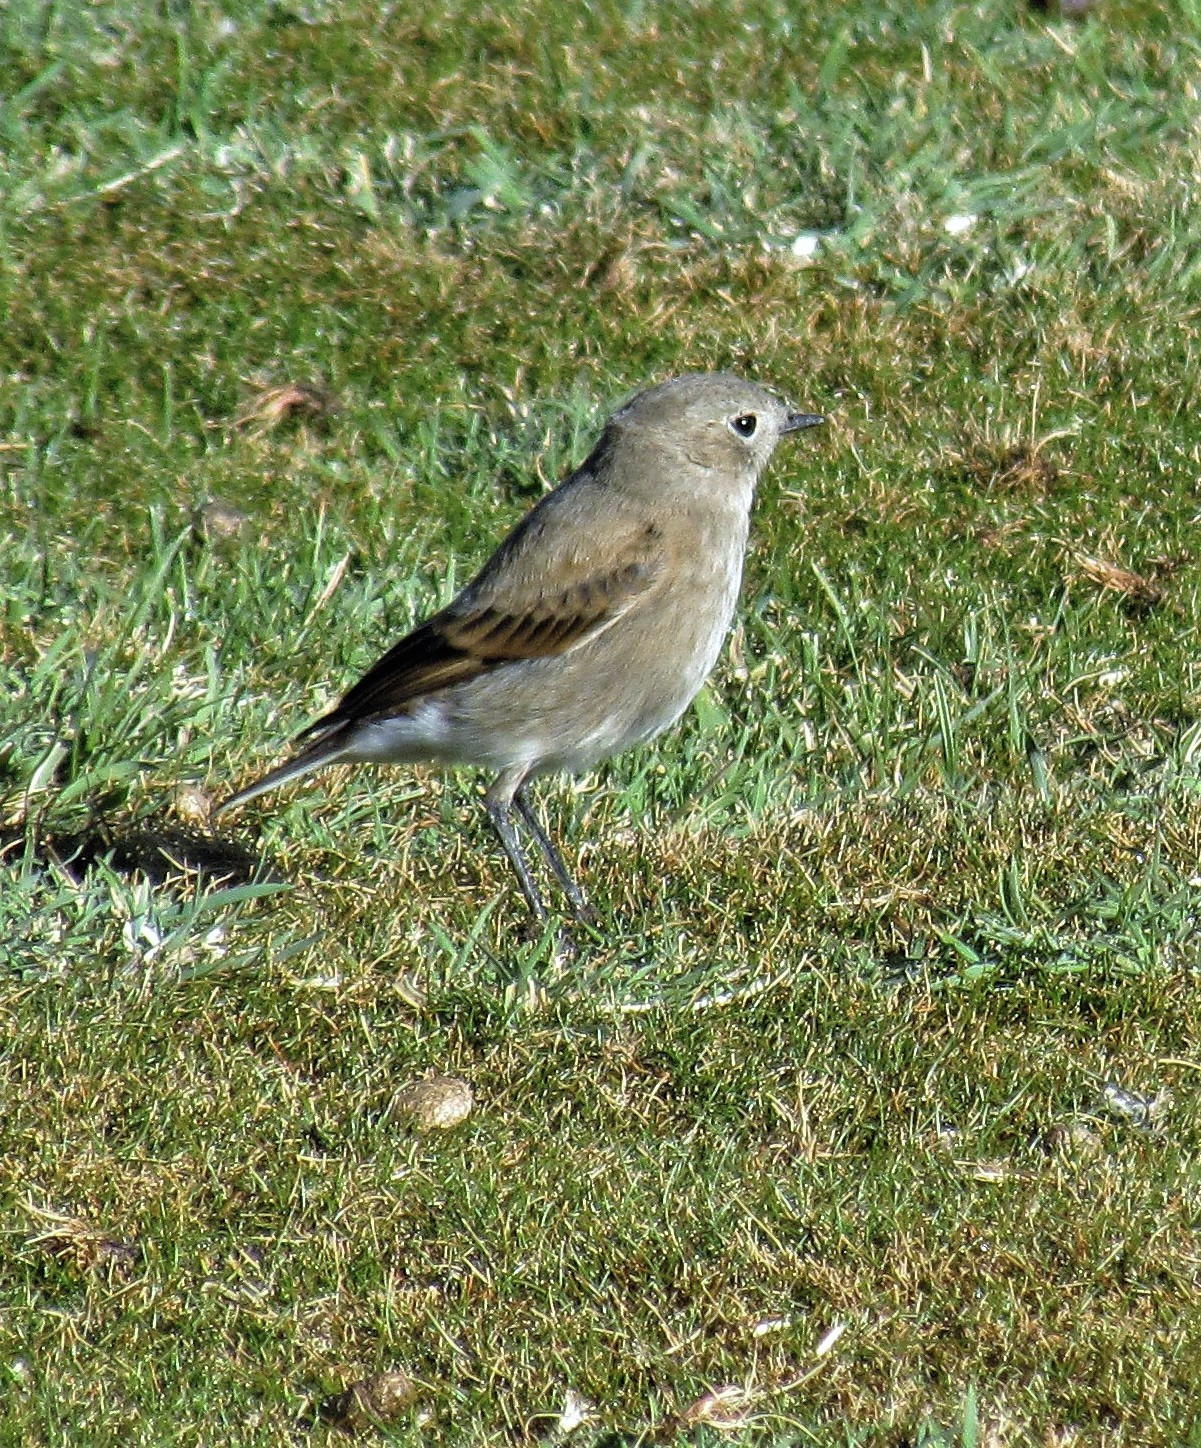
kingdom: Animalia
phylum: Chordata
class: Aves
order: Passeriformes
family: Tyrannidae
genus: Lessonia
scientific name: Lessonia rufa
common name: Austral negrito
